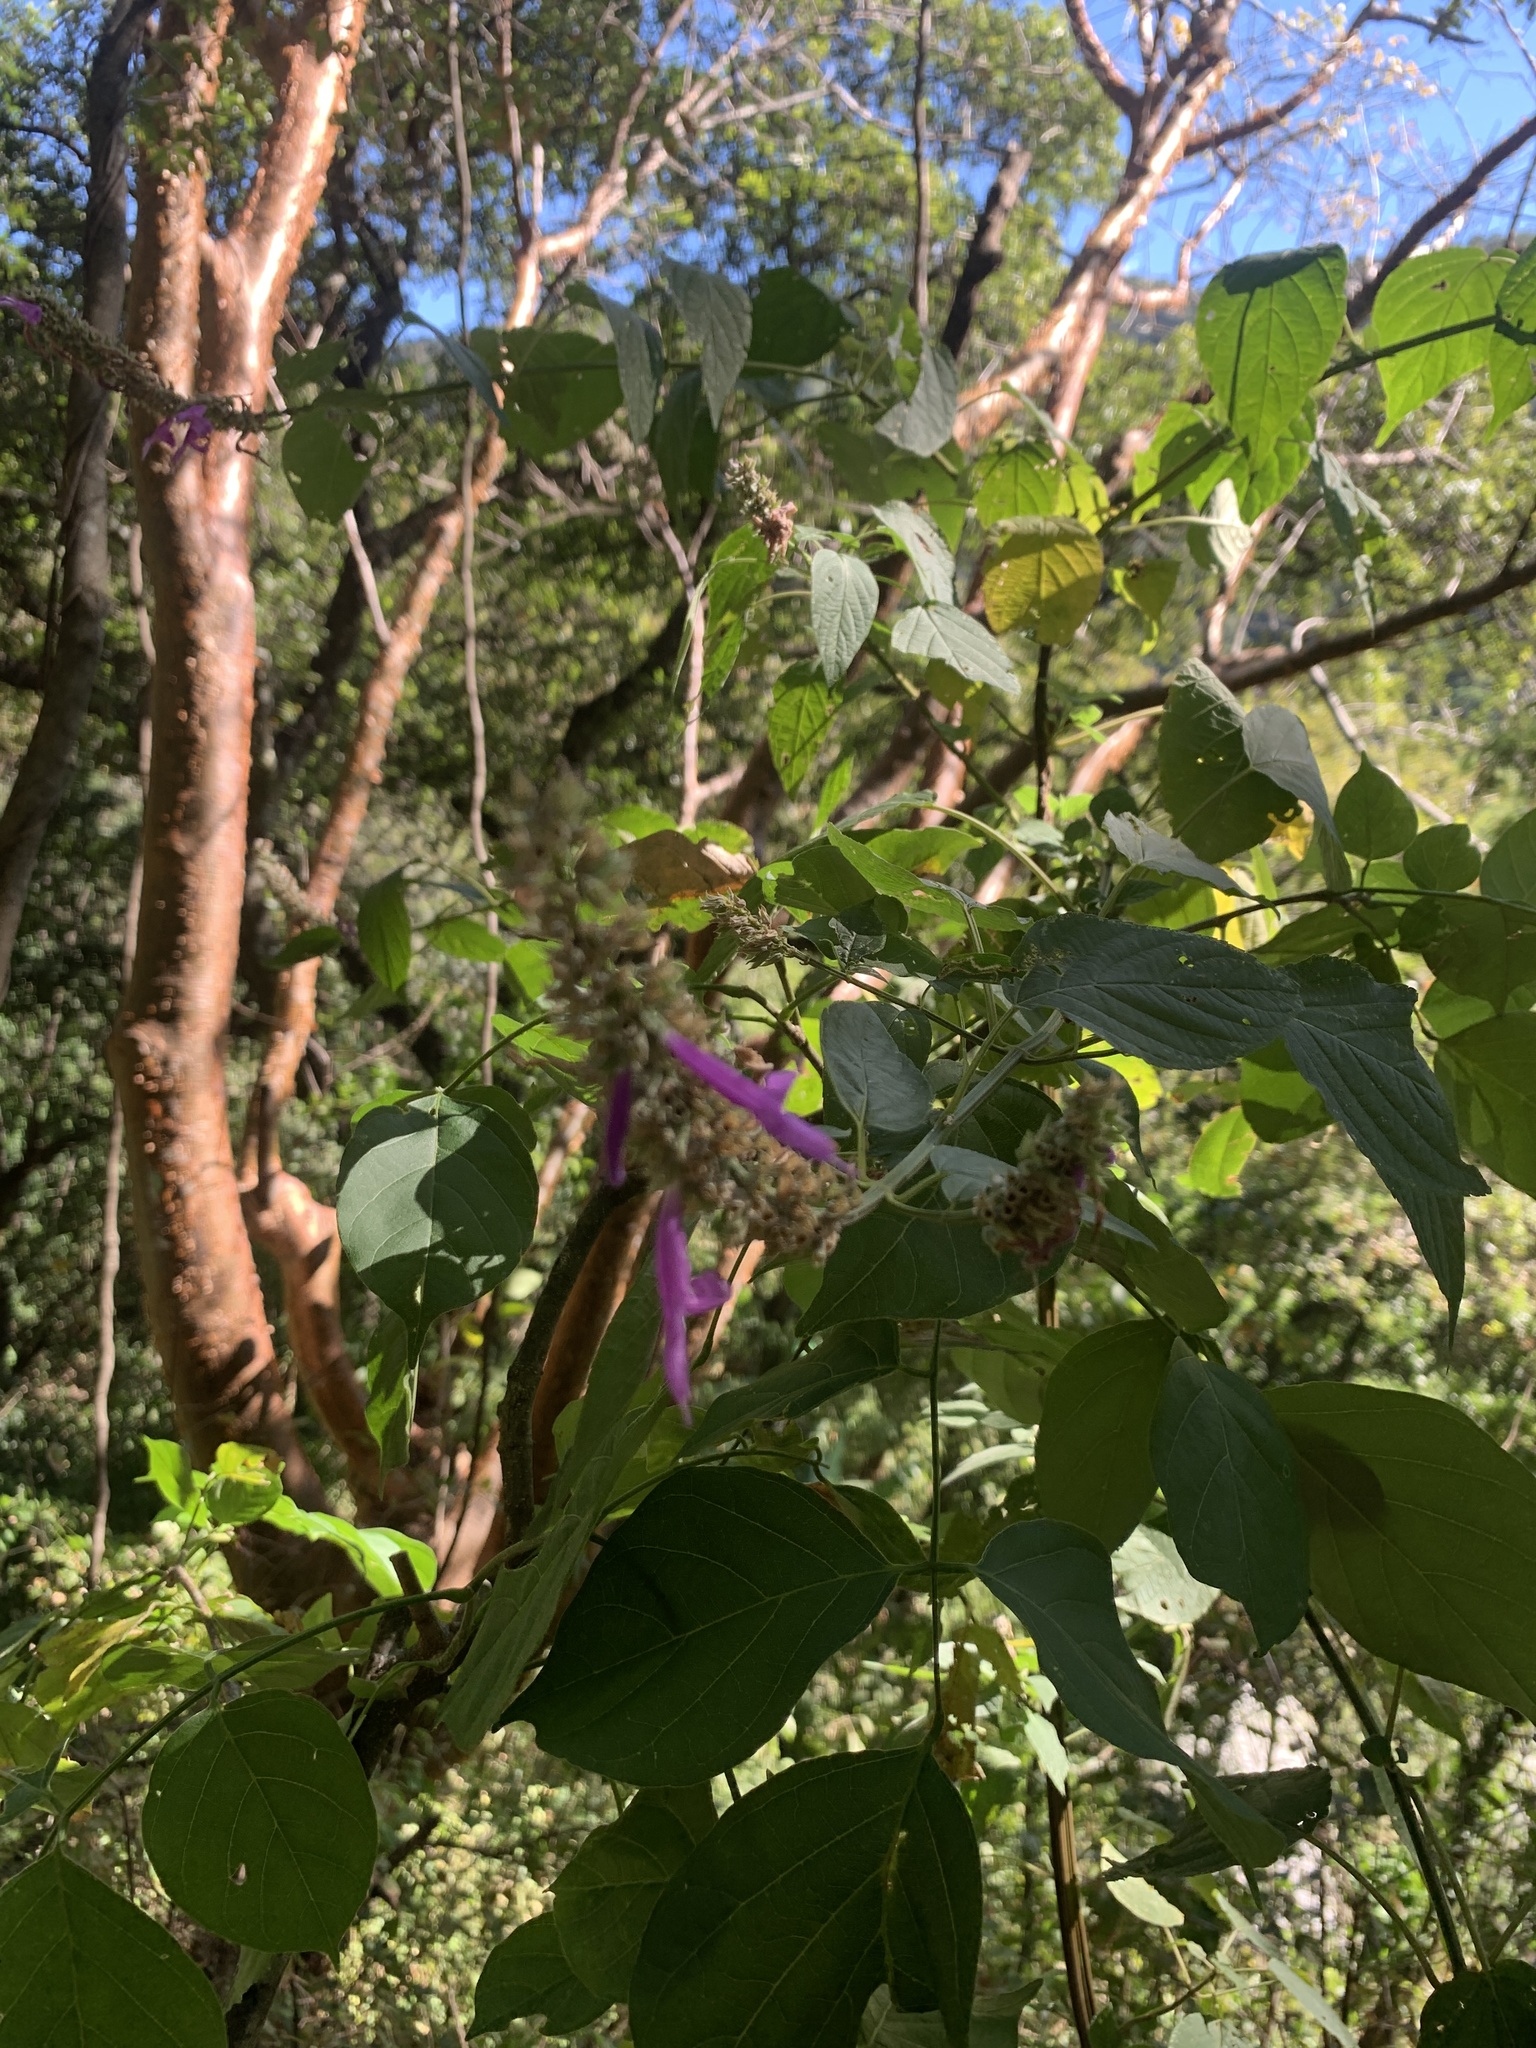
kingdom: Plantae
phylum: Tracheophyta
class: Magnoliopsida
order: Lamiales
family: Lamiaceae
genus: Salvia
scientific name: Salvia purpurea
